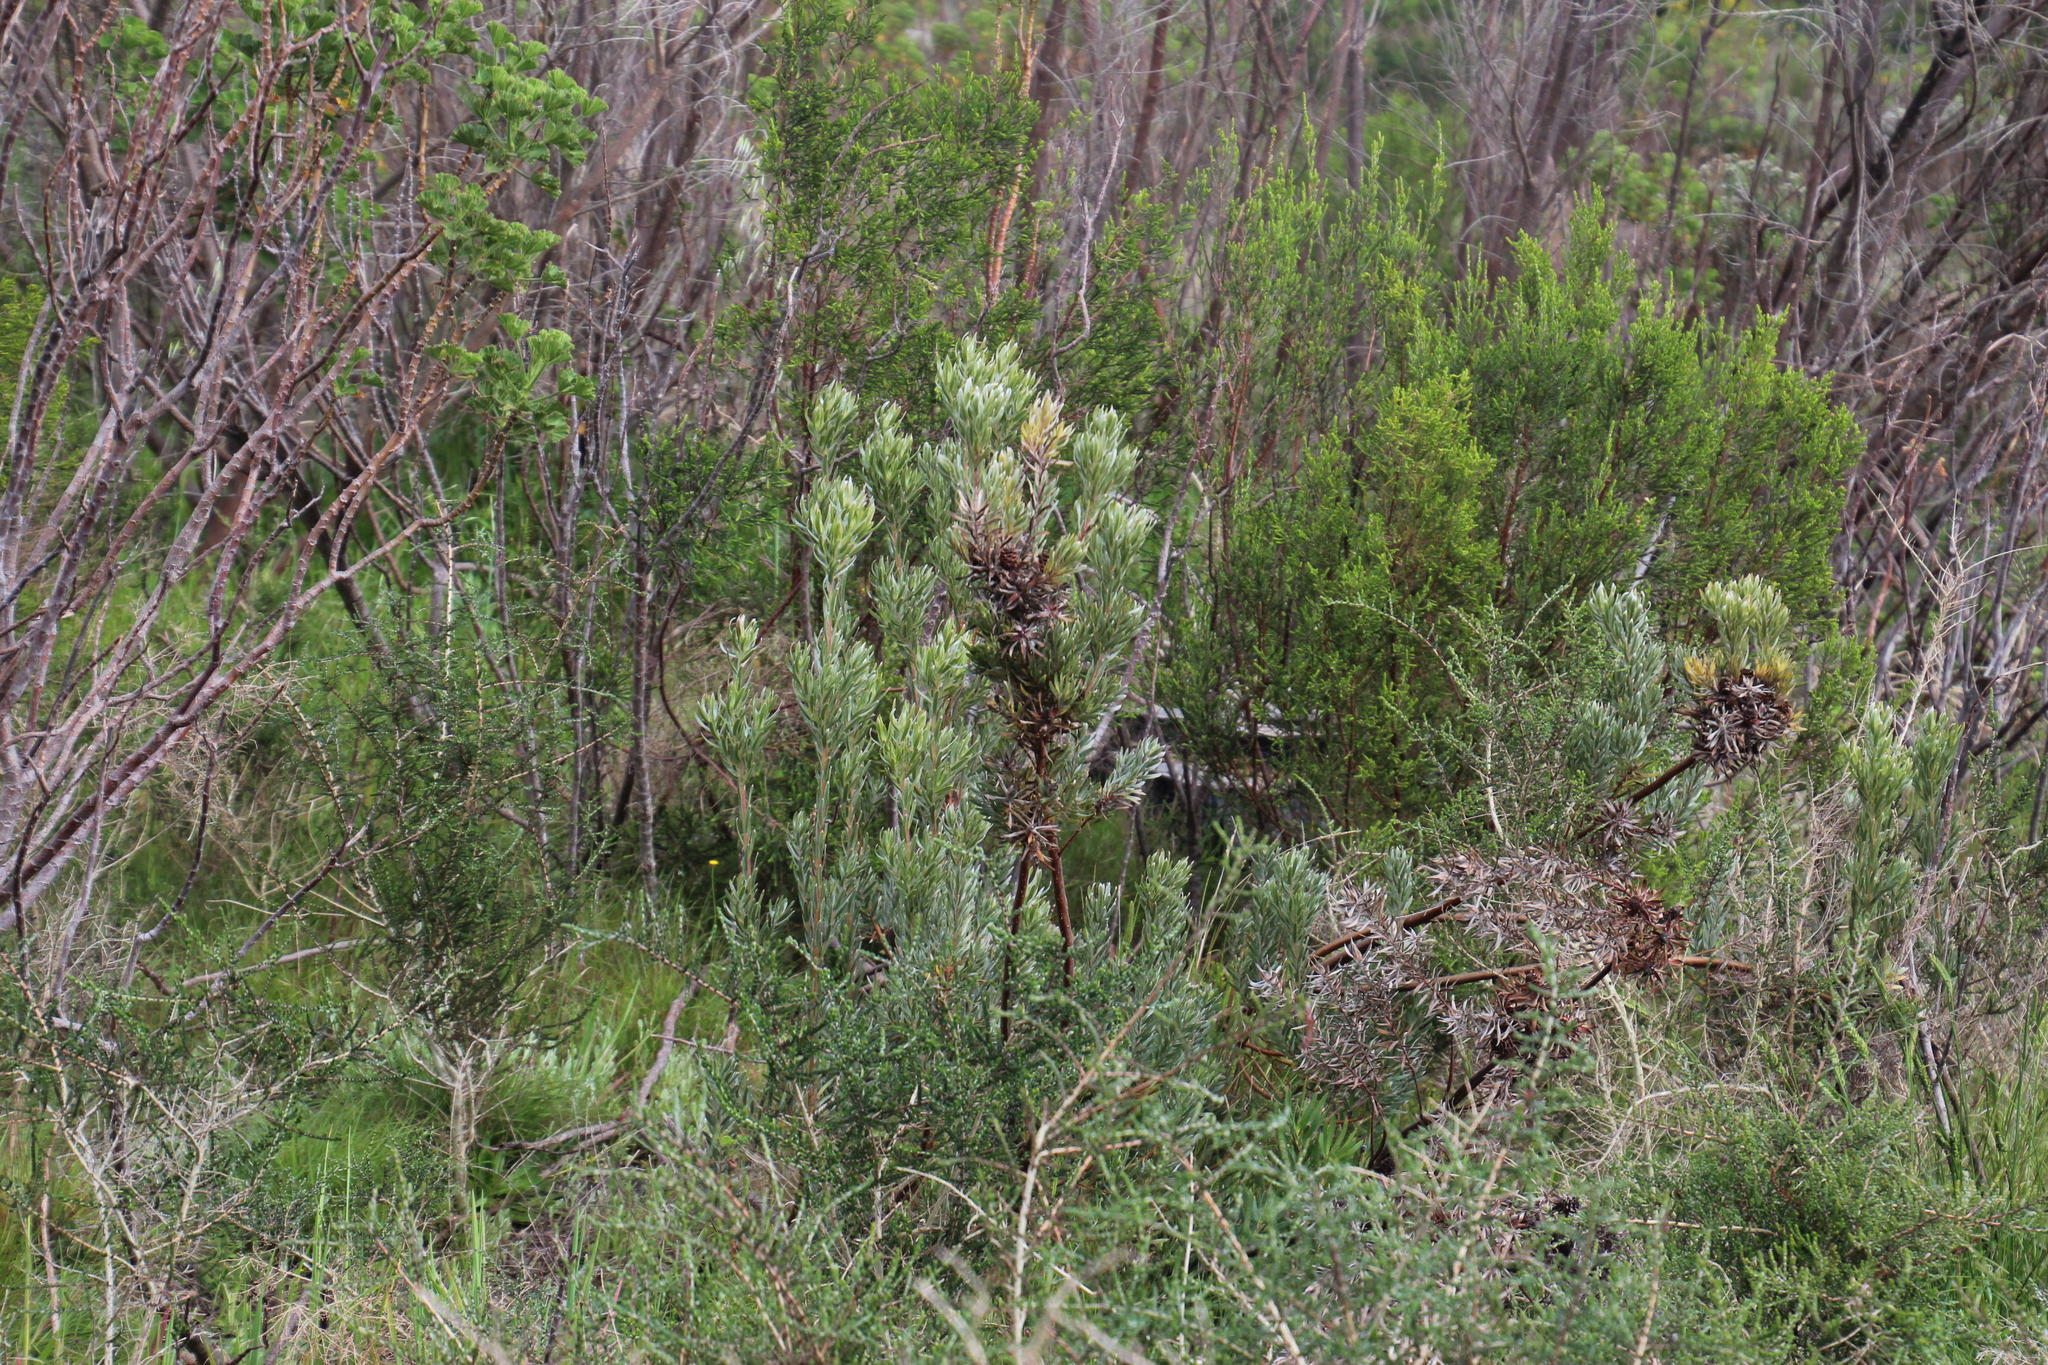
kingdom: Plantae
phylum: Tracheophyta
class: Magnoliopsida
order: Proteales
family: Proteaceae
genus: Leucadendron
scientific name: Leucadendron floridum
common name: Flats conebush
